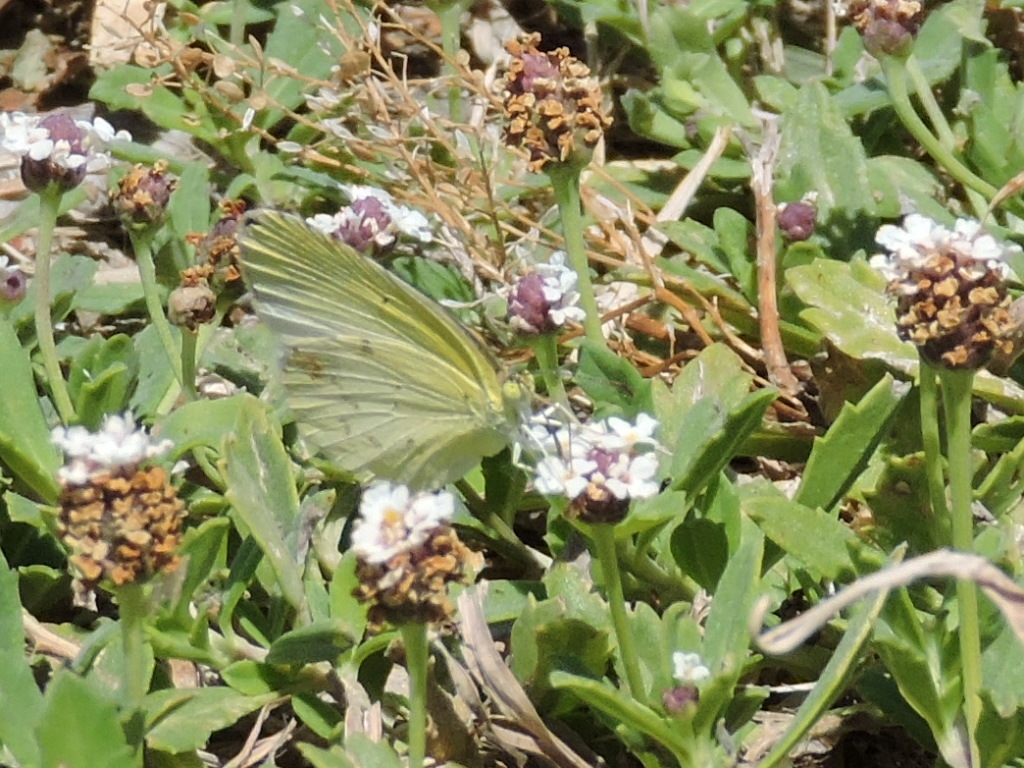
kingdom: Animalia
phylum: Arthropoda
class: Insecta
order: Lepidoptera
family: Pieridae
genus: Pyrisitia
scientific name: Pyrisitia lisa
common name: Little yellow
